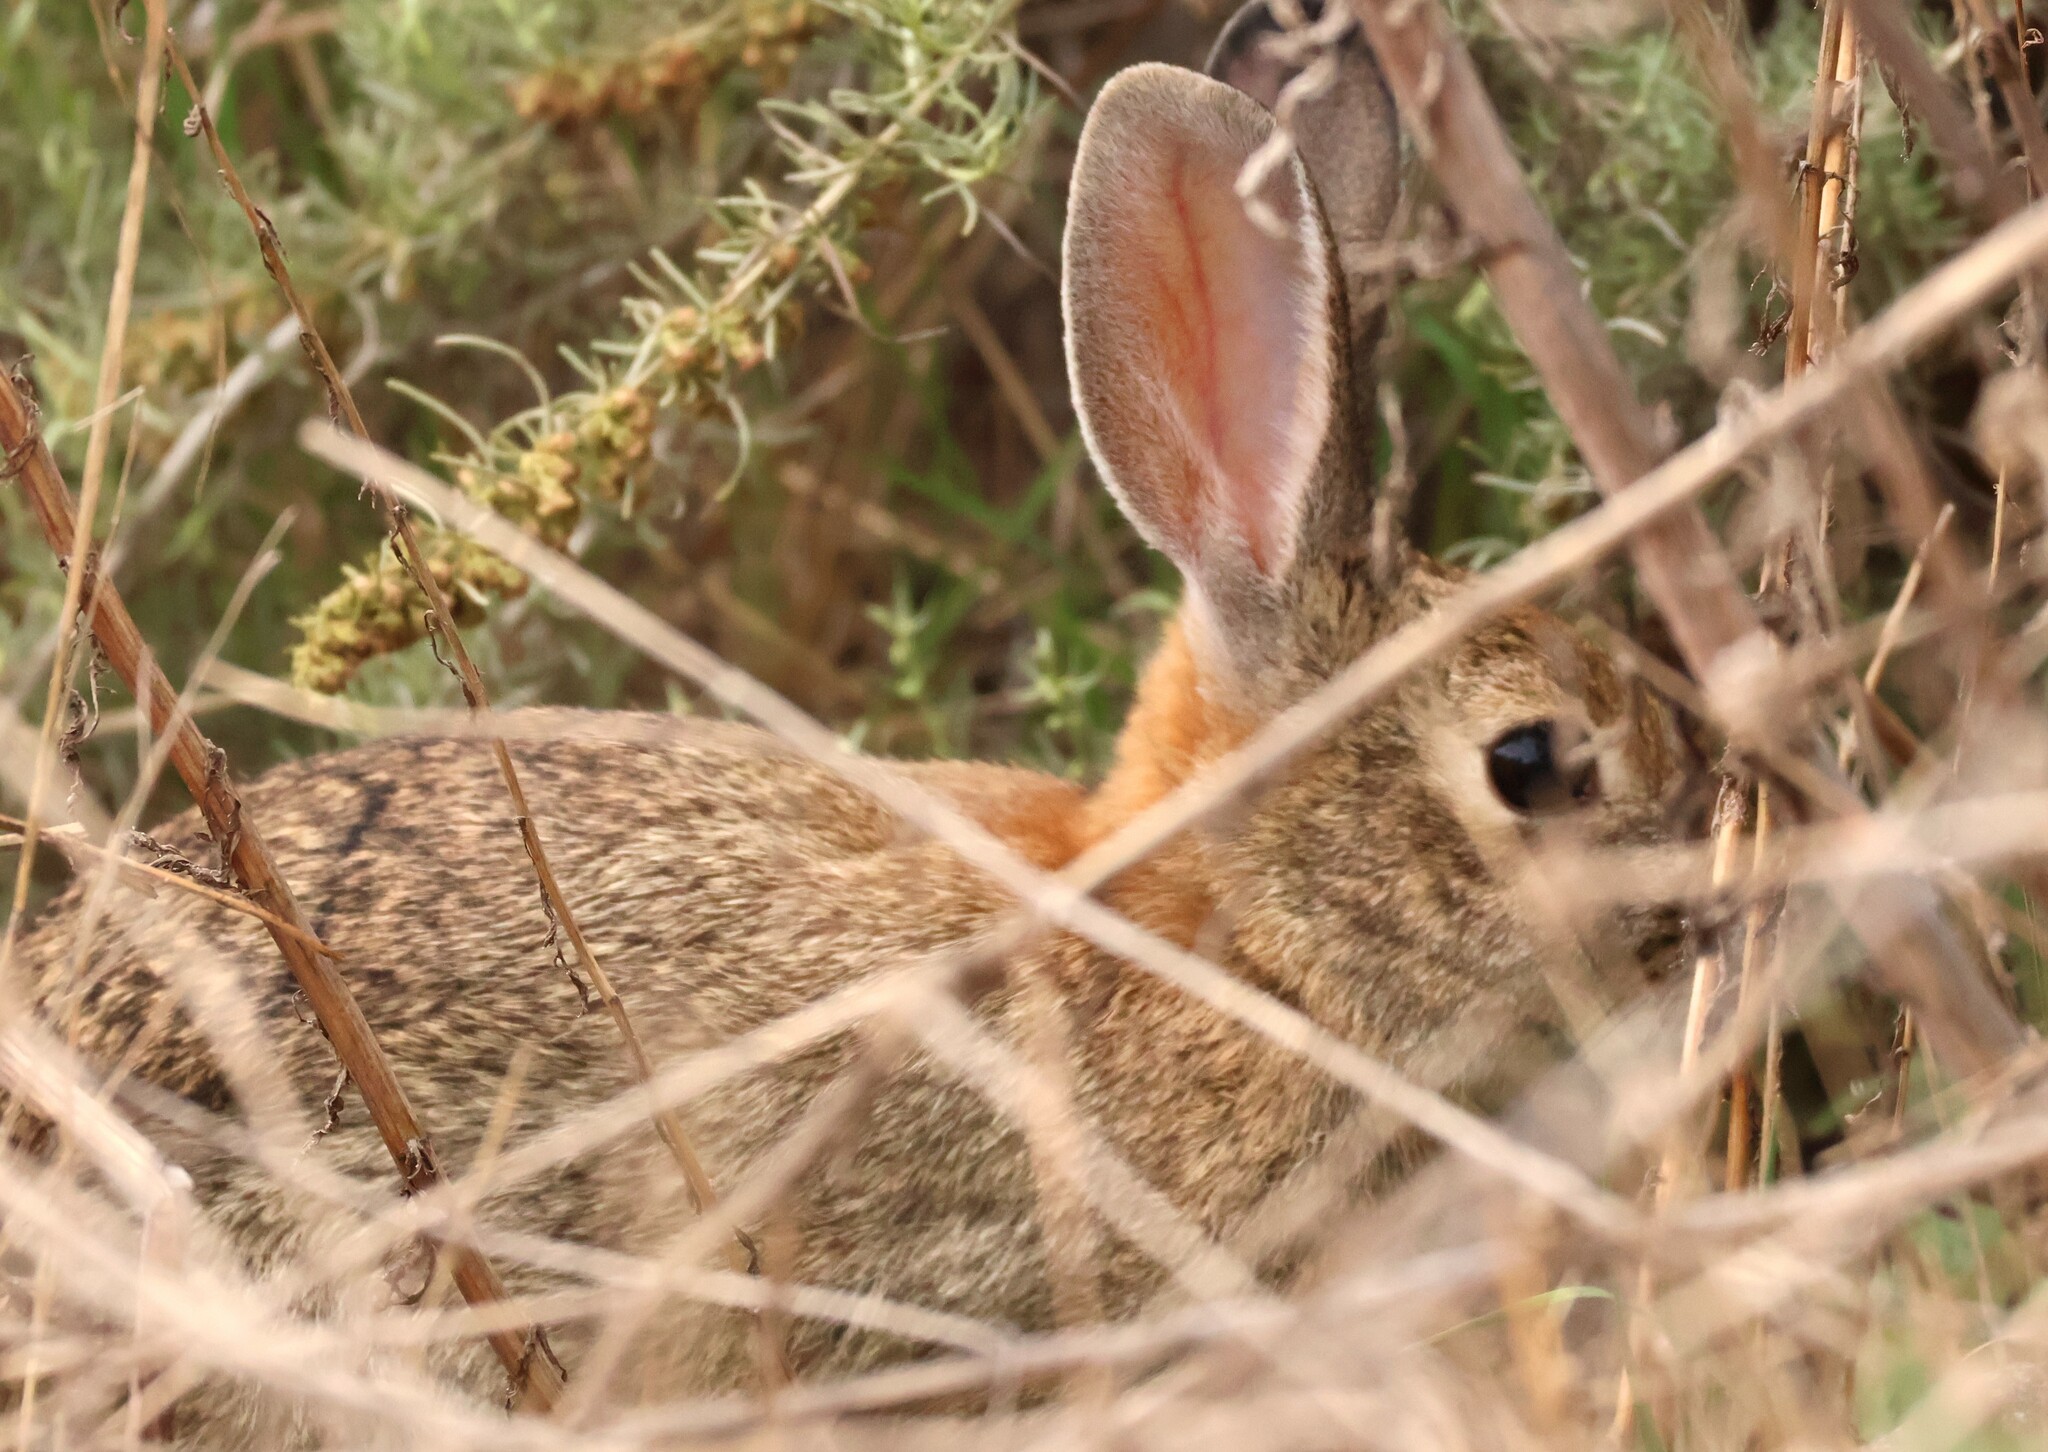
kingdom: Animalia
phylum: Chordata
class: Mammalia
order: Lagomorpha
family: Leporidae
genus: Sylvilagus
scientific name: Sylvilagus audubonii
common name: Desert cottontail
